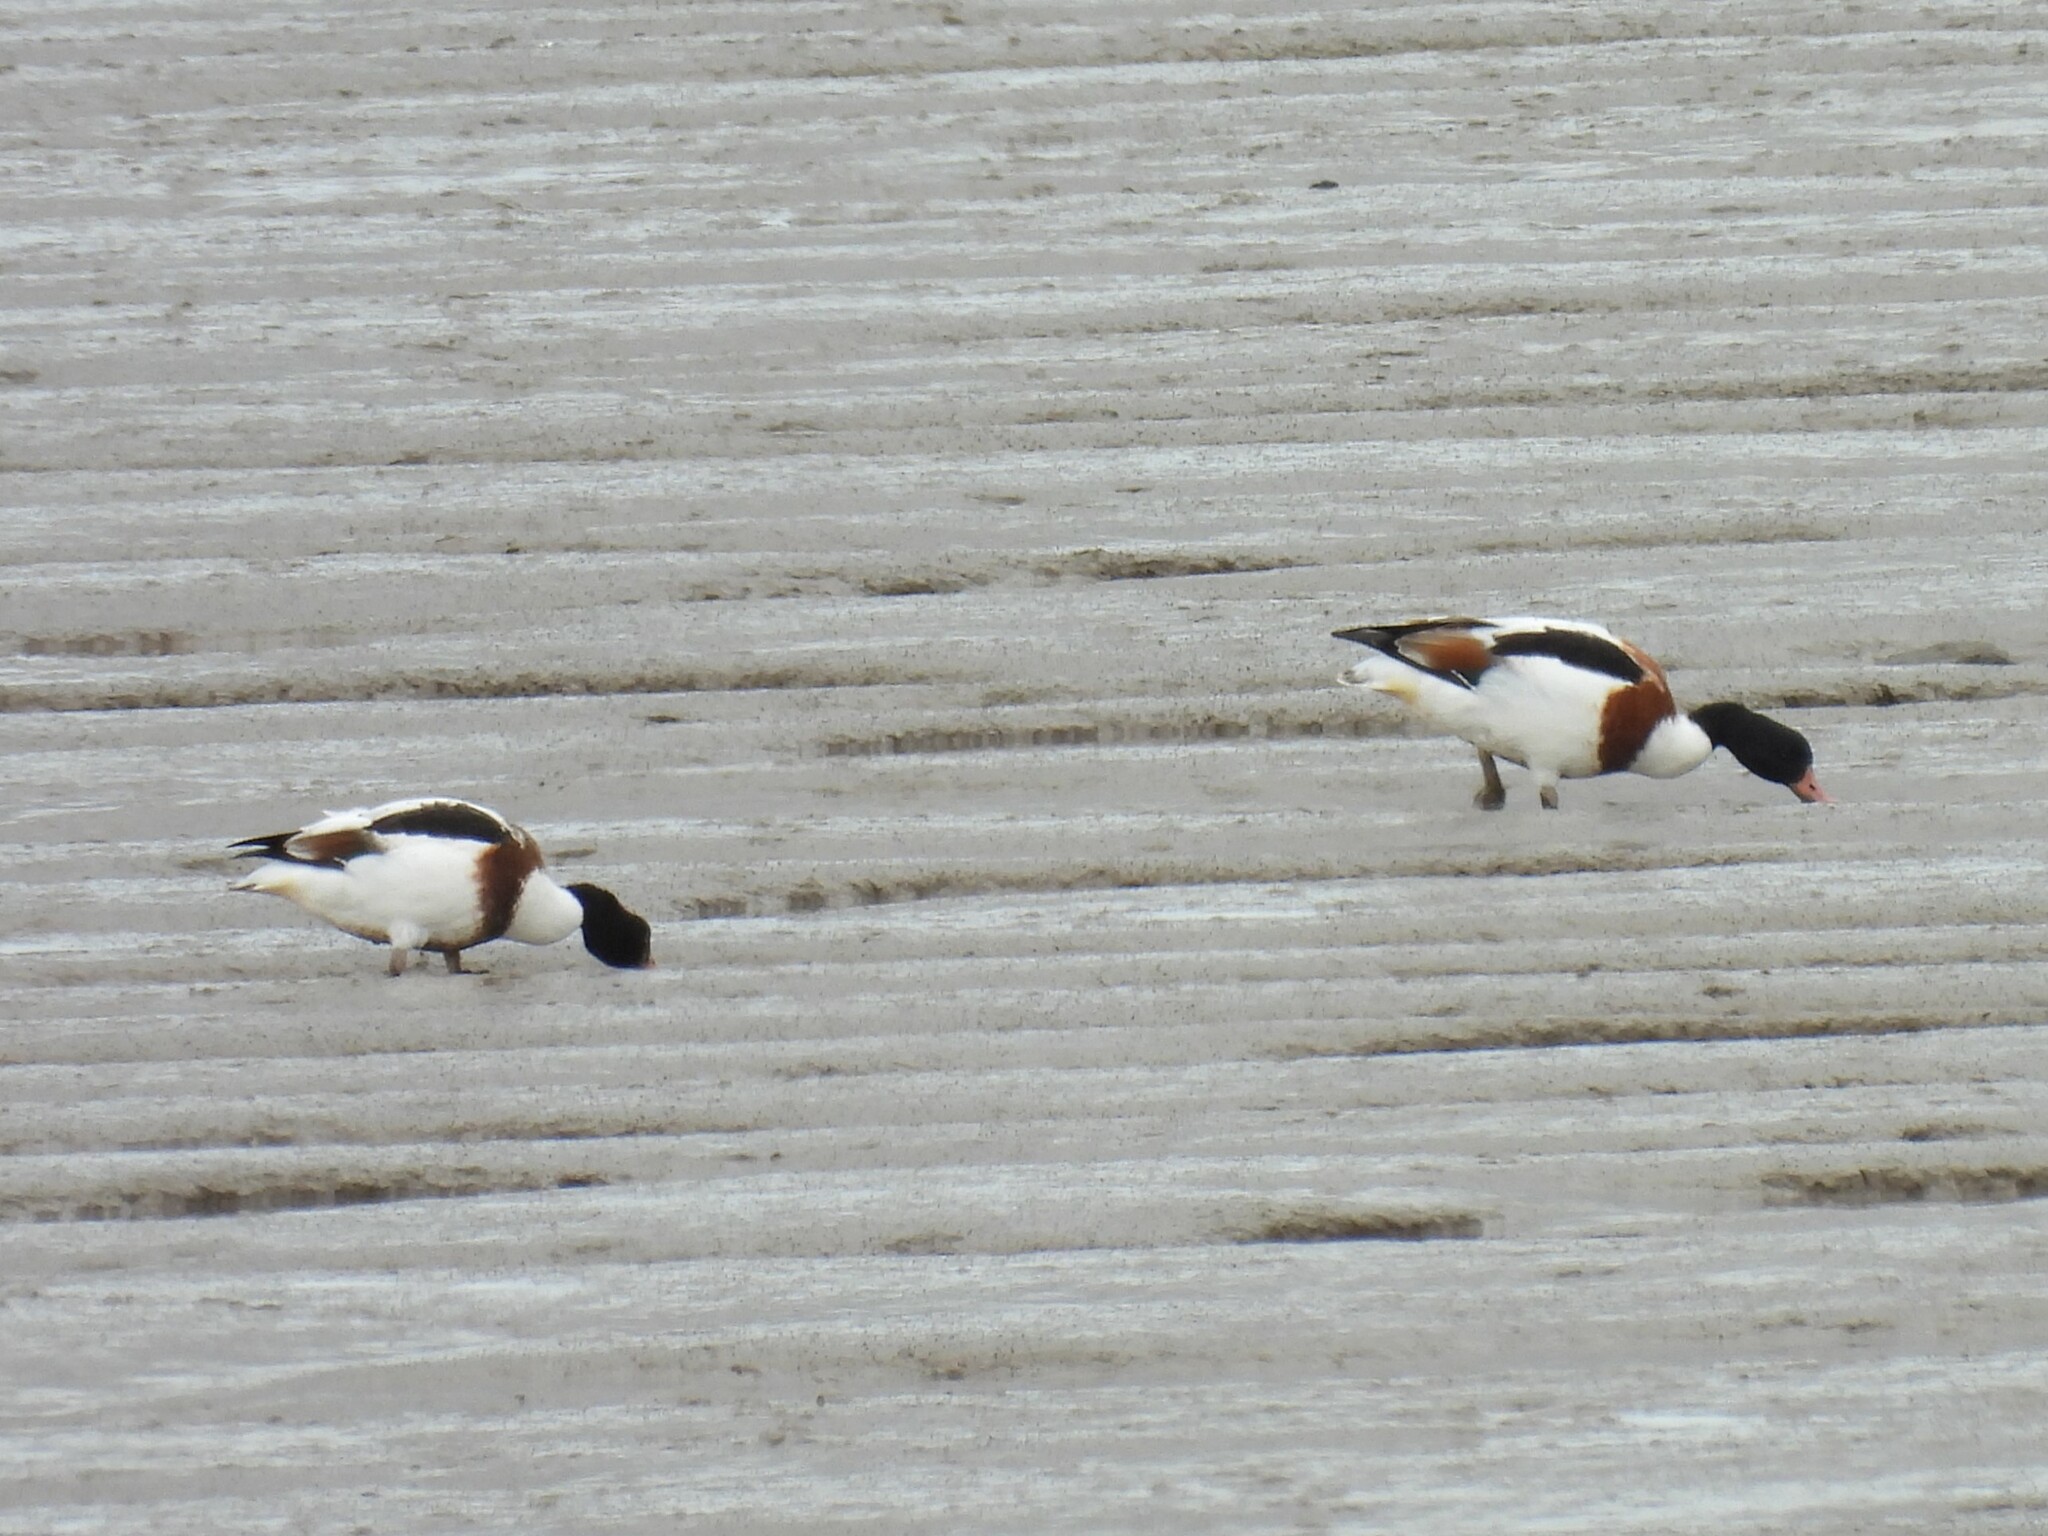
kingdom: Animalia
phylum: Chordata
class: Aves
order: Anseriformes
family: Anatidae
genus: Tadorna
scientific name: Tadorna tadorna
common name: Common shelduck
